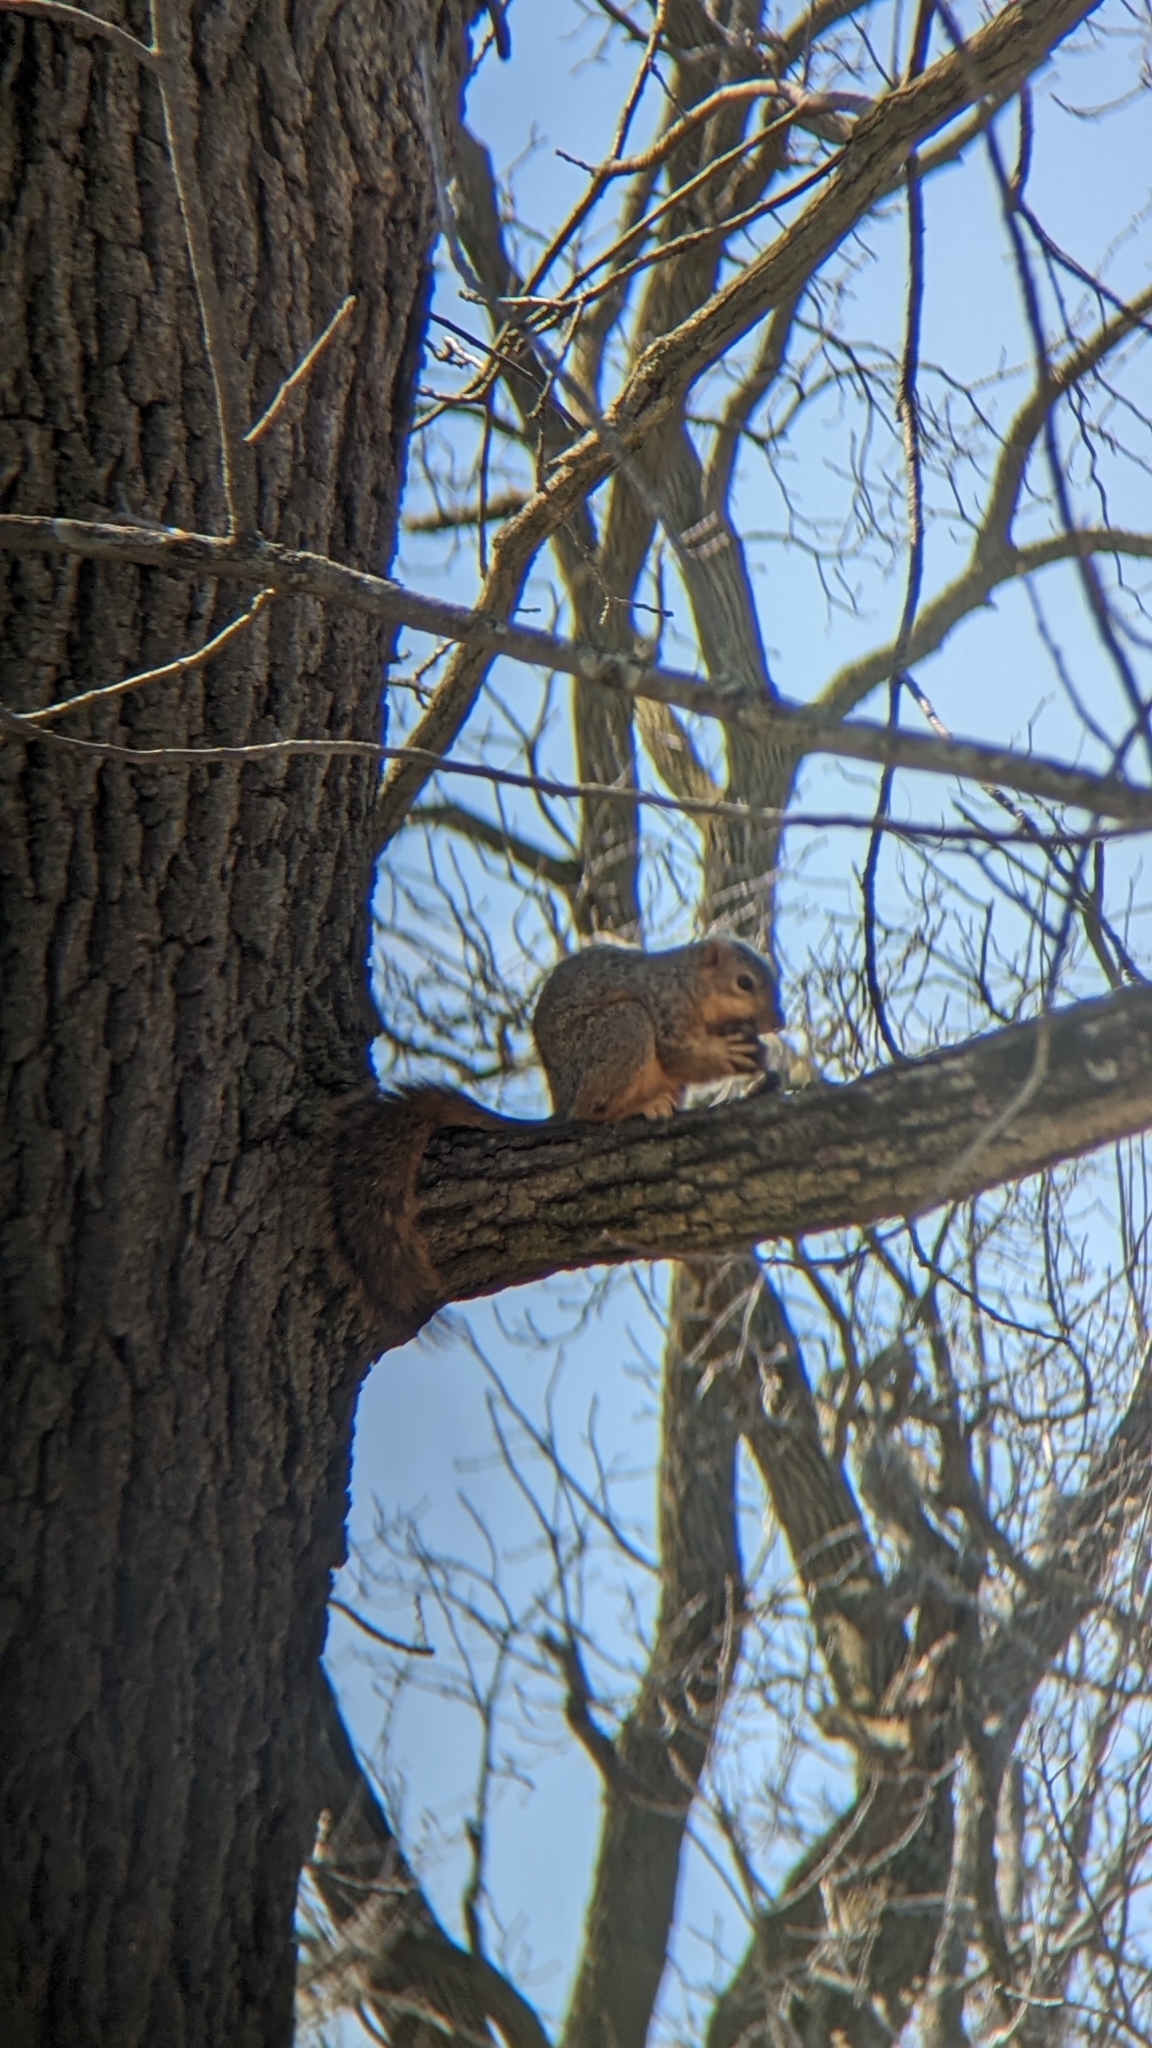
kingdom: Animalia
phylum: Chordata
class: Mammalia
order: Rodentia
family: Sciuridae
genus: Sciurus
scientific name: Sciurus niger
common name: Fox squirrel
